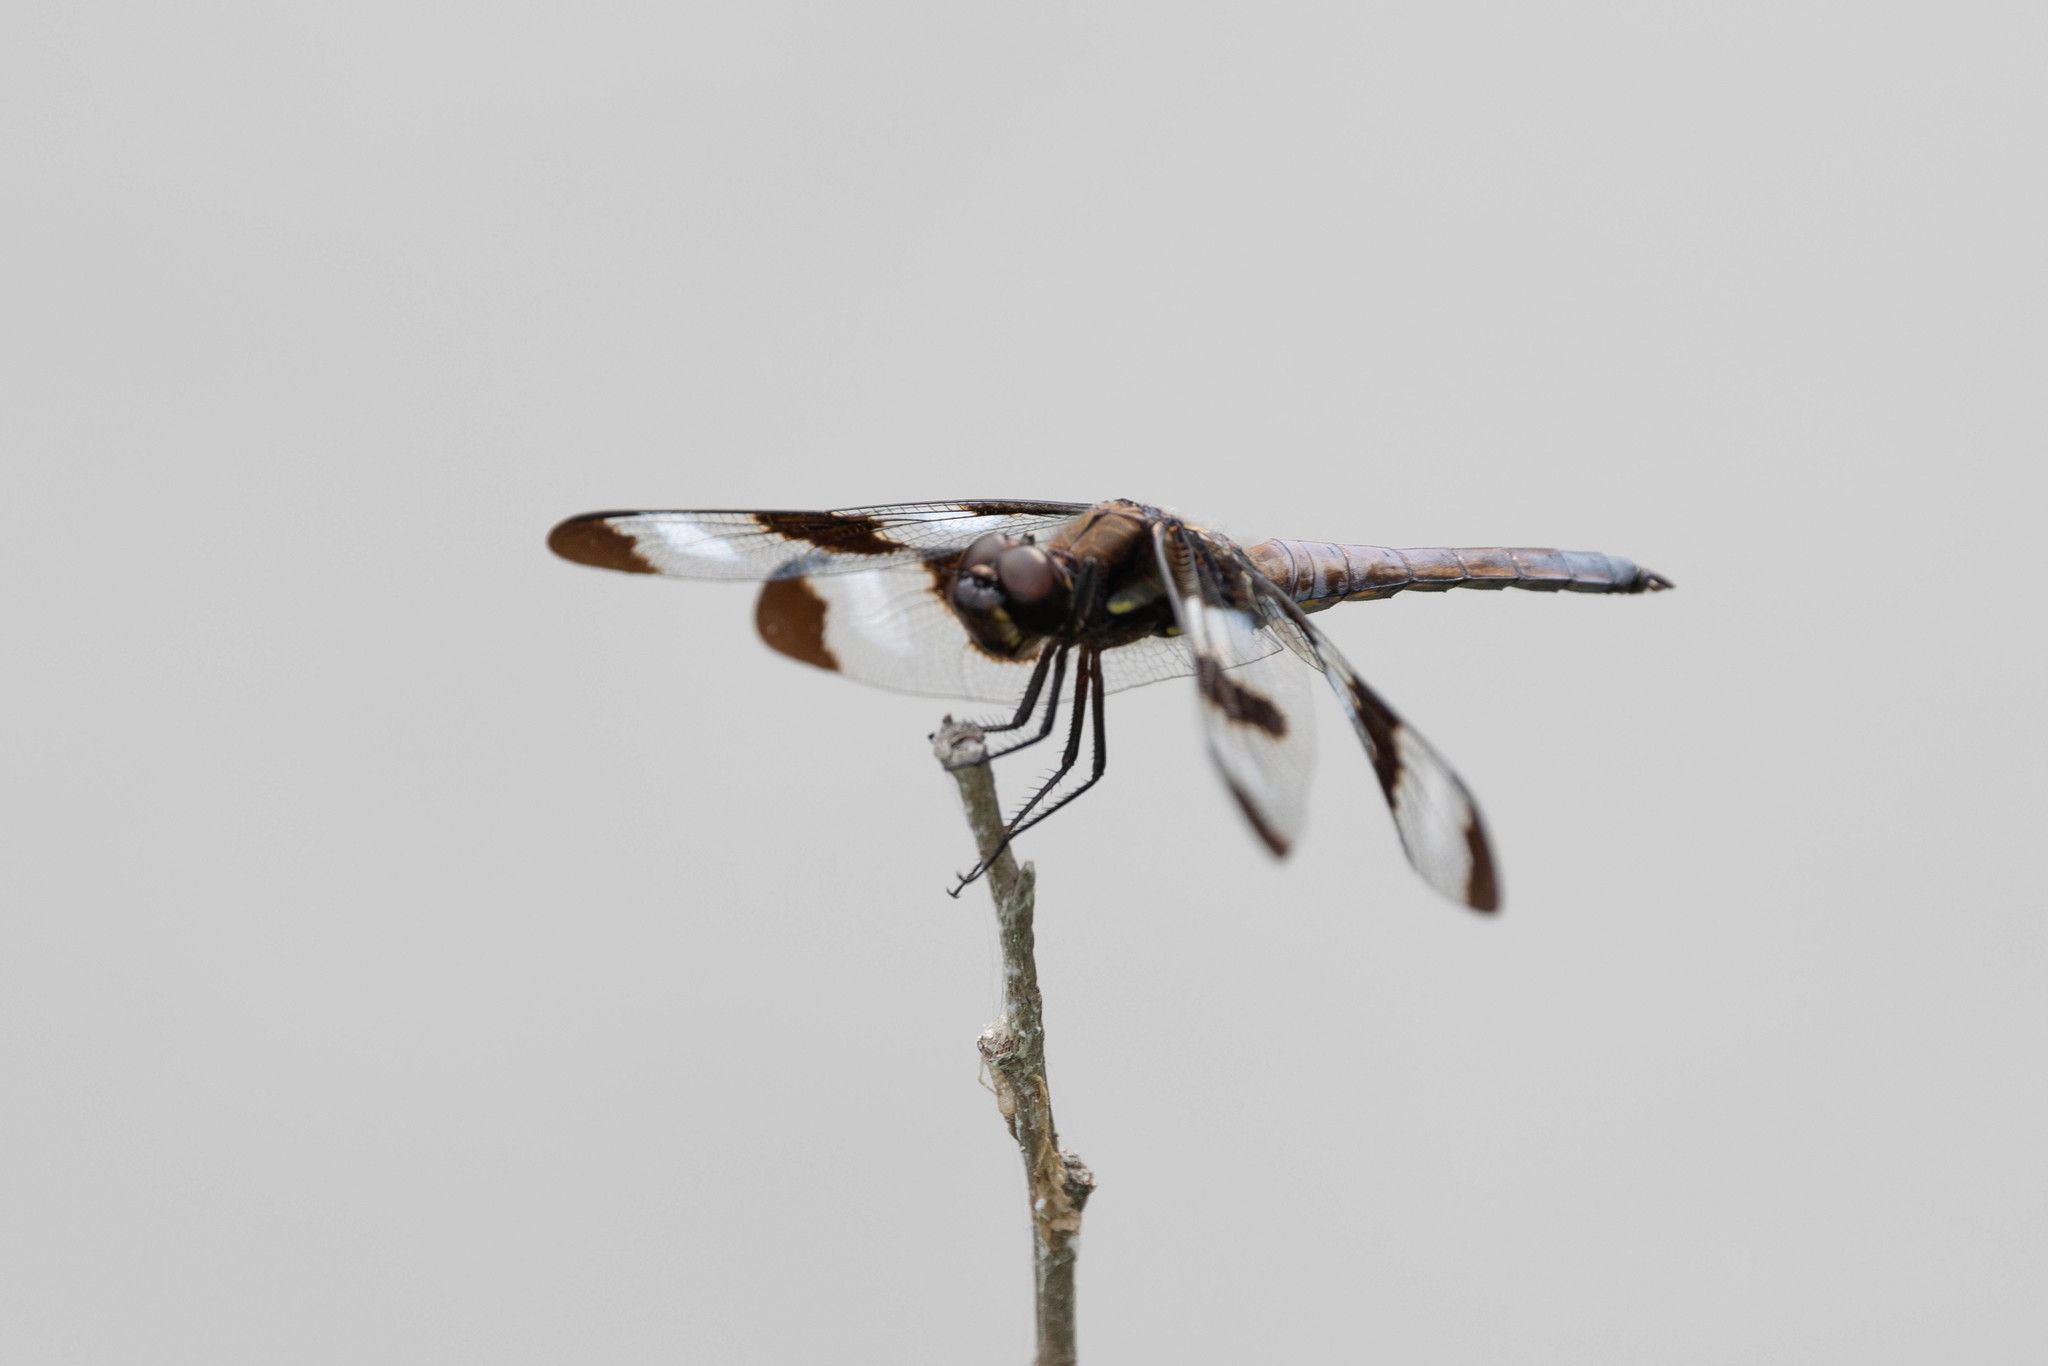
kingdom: Animalia
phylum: Arthropoda
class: Insecta
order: Odonata
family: Libellulidae
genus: Libellula
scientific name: Libellula pulchella
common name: Twelve-spotted skimmer
